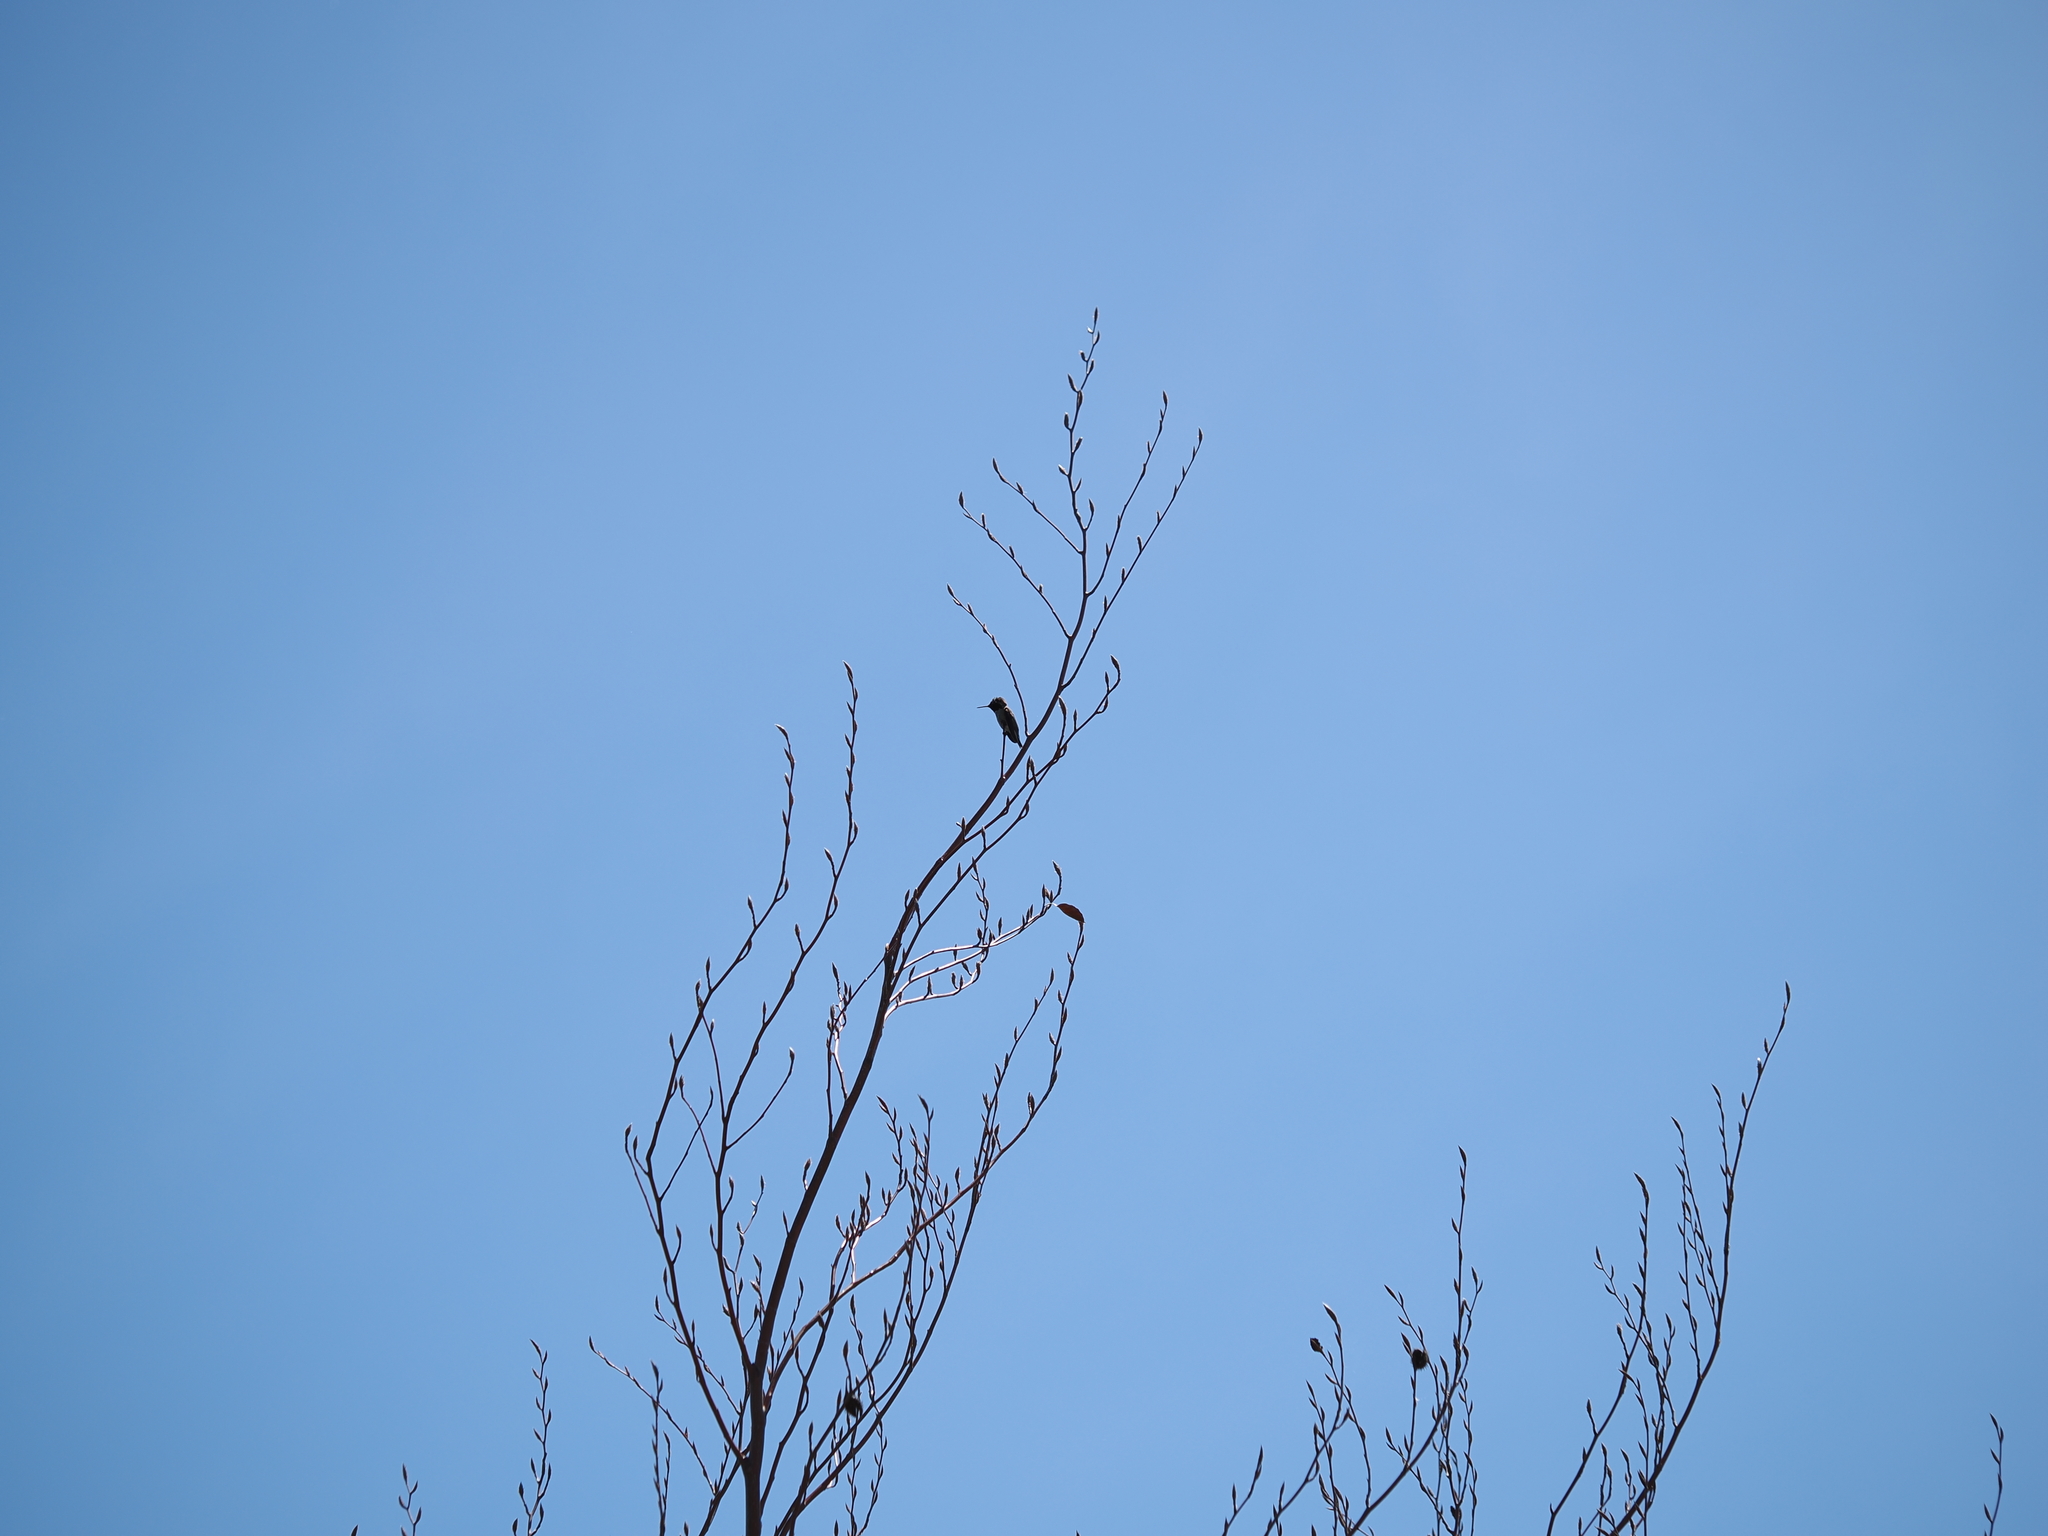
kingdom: Animalia
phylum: Chordata
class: Aves
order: Apodiformes
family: Trochilidae
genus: Calypte
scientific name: Calypte anna
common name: Anna's hummingbird
